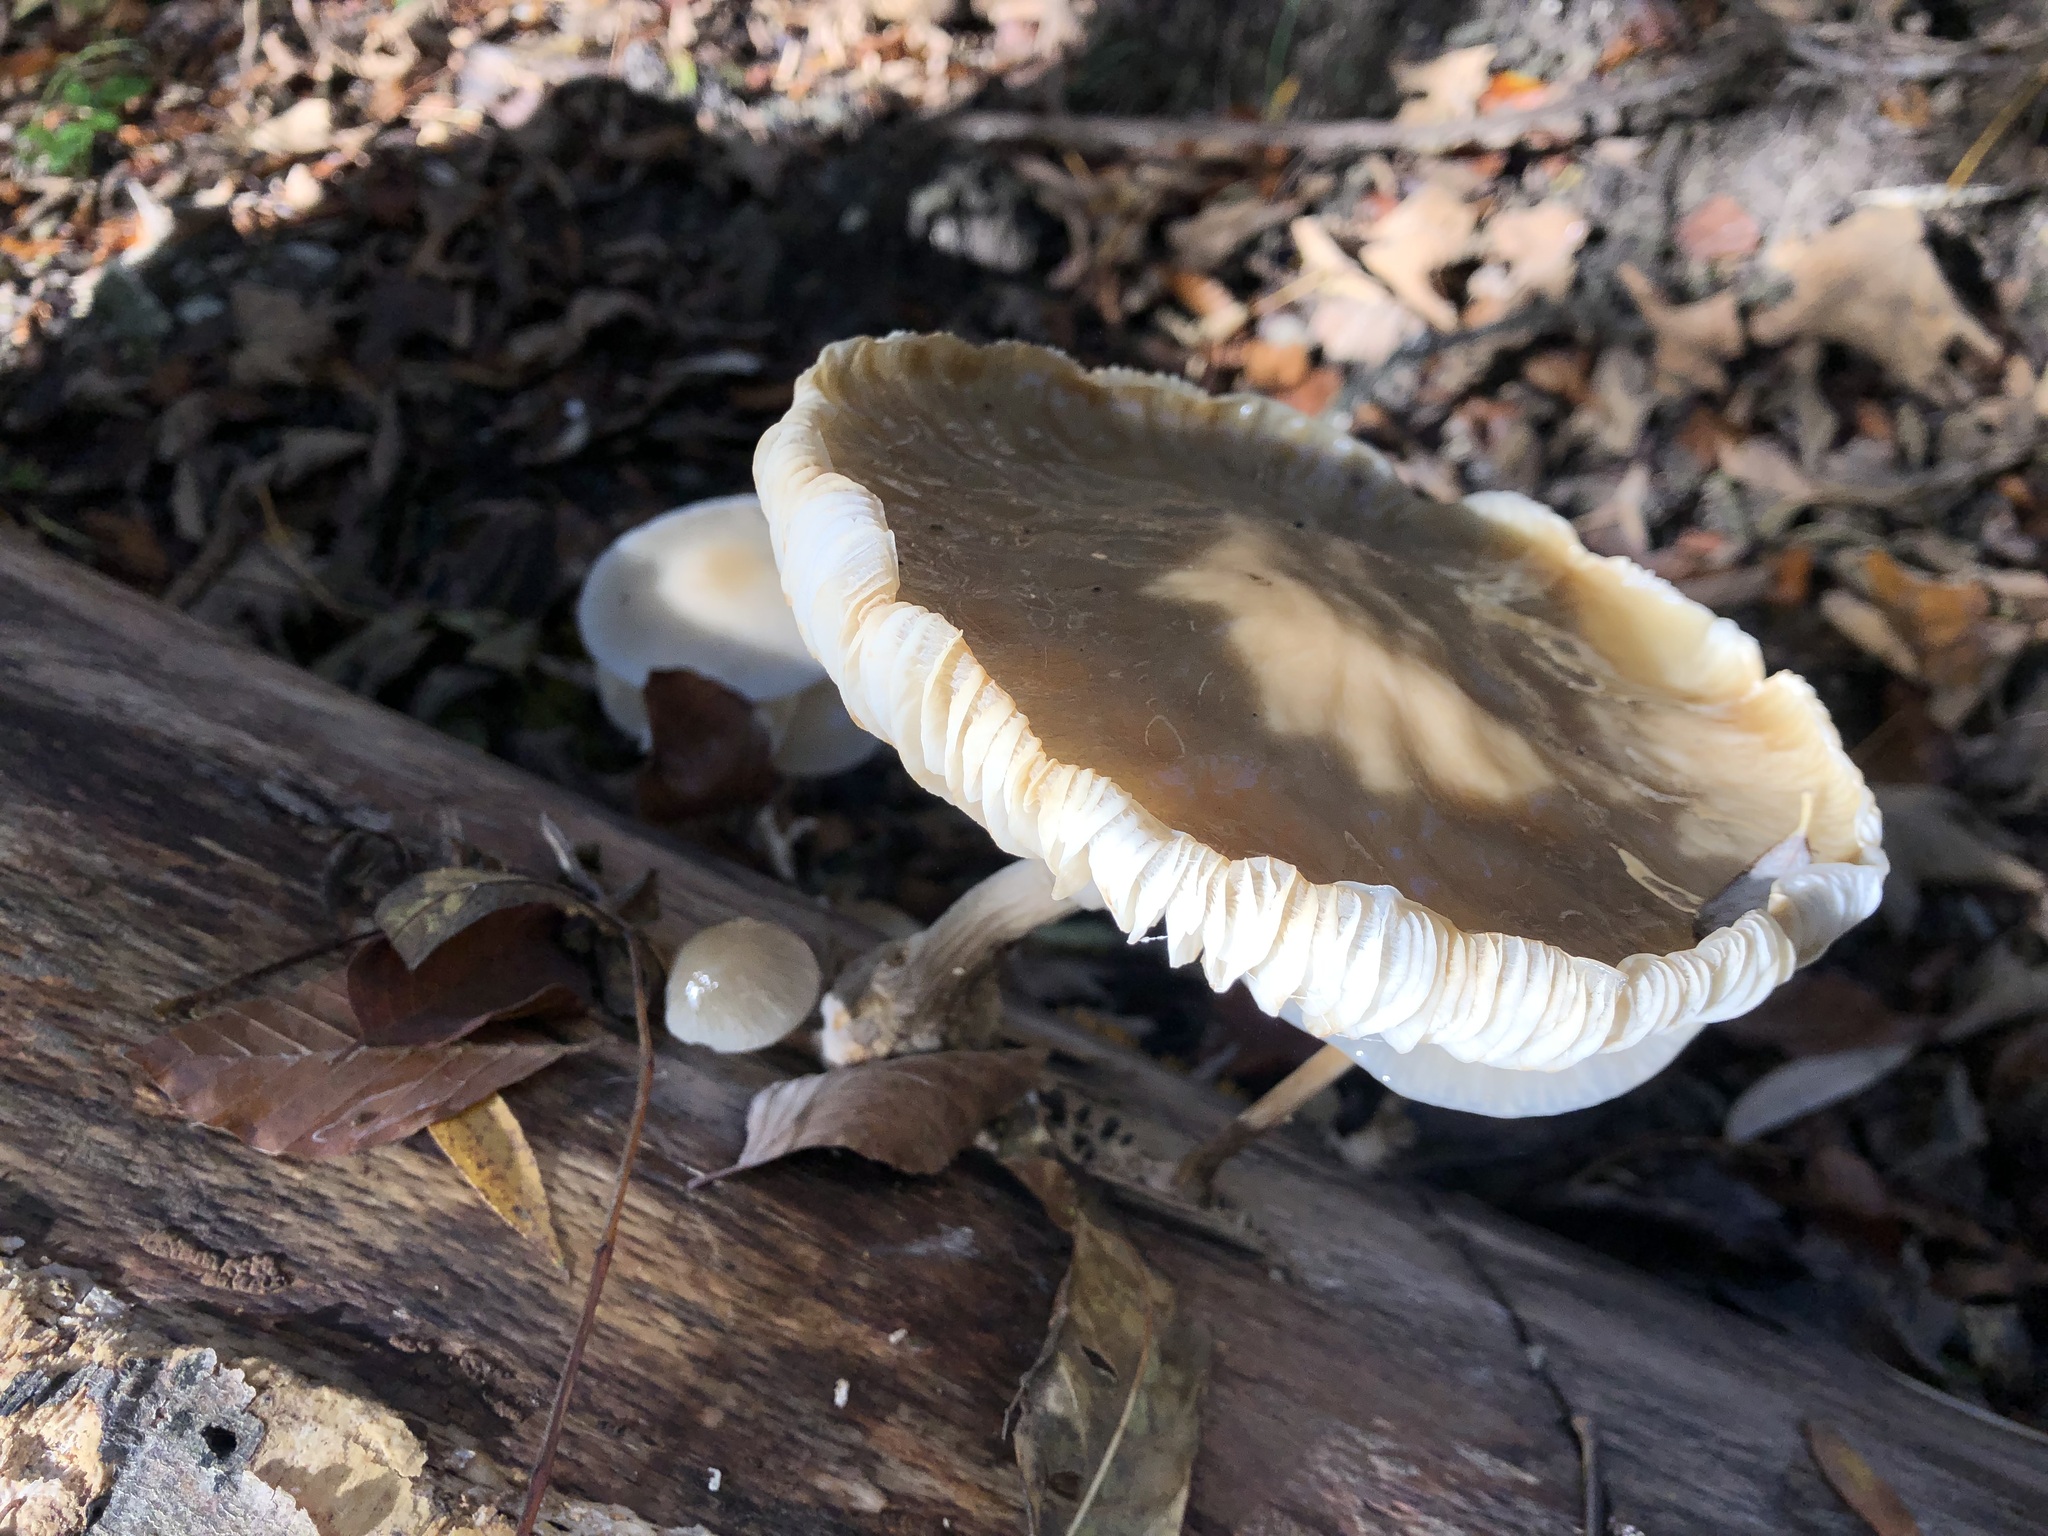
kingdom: Fungi
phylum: Basidiomycota
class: Agaricomycetes
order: Agaricales
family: Physalacriaceae
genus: Mucidula
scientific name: Mucidula mucida
